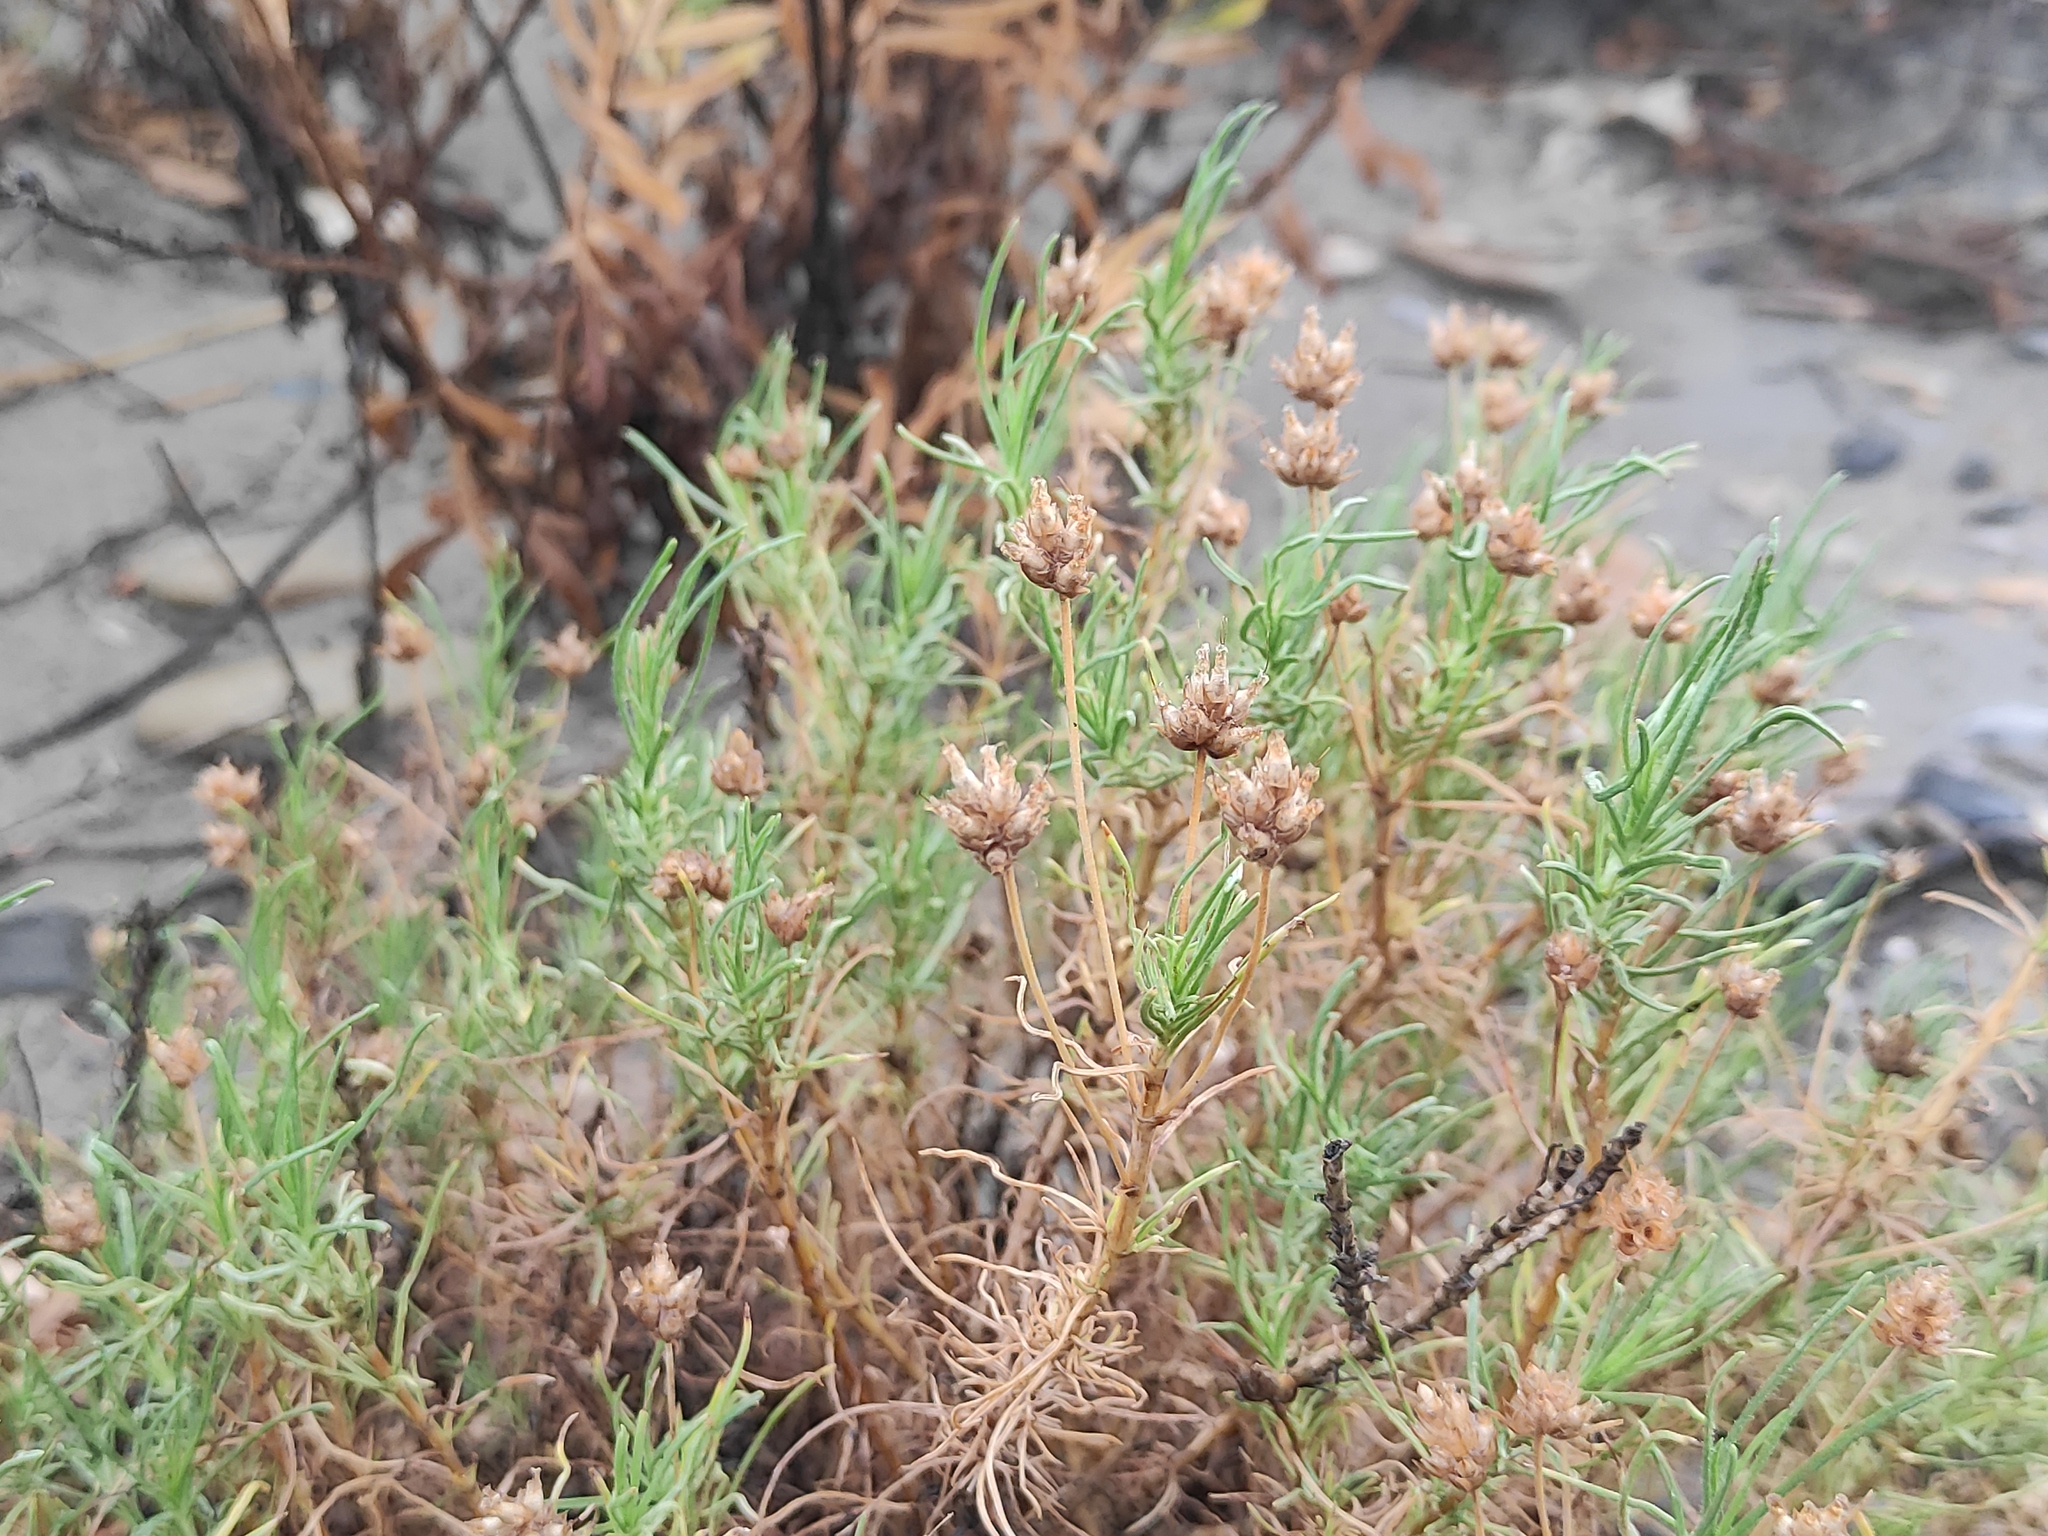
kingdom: Plantae
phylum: Tracheophyta
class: Magnoliopsida
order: Lamiales
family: Plantaginaceae
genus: Plantago
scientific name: Plantago sempervirens
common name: Shrubby plantain
